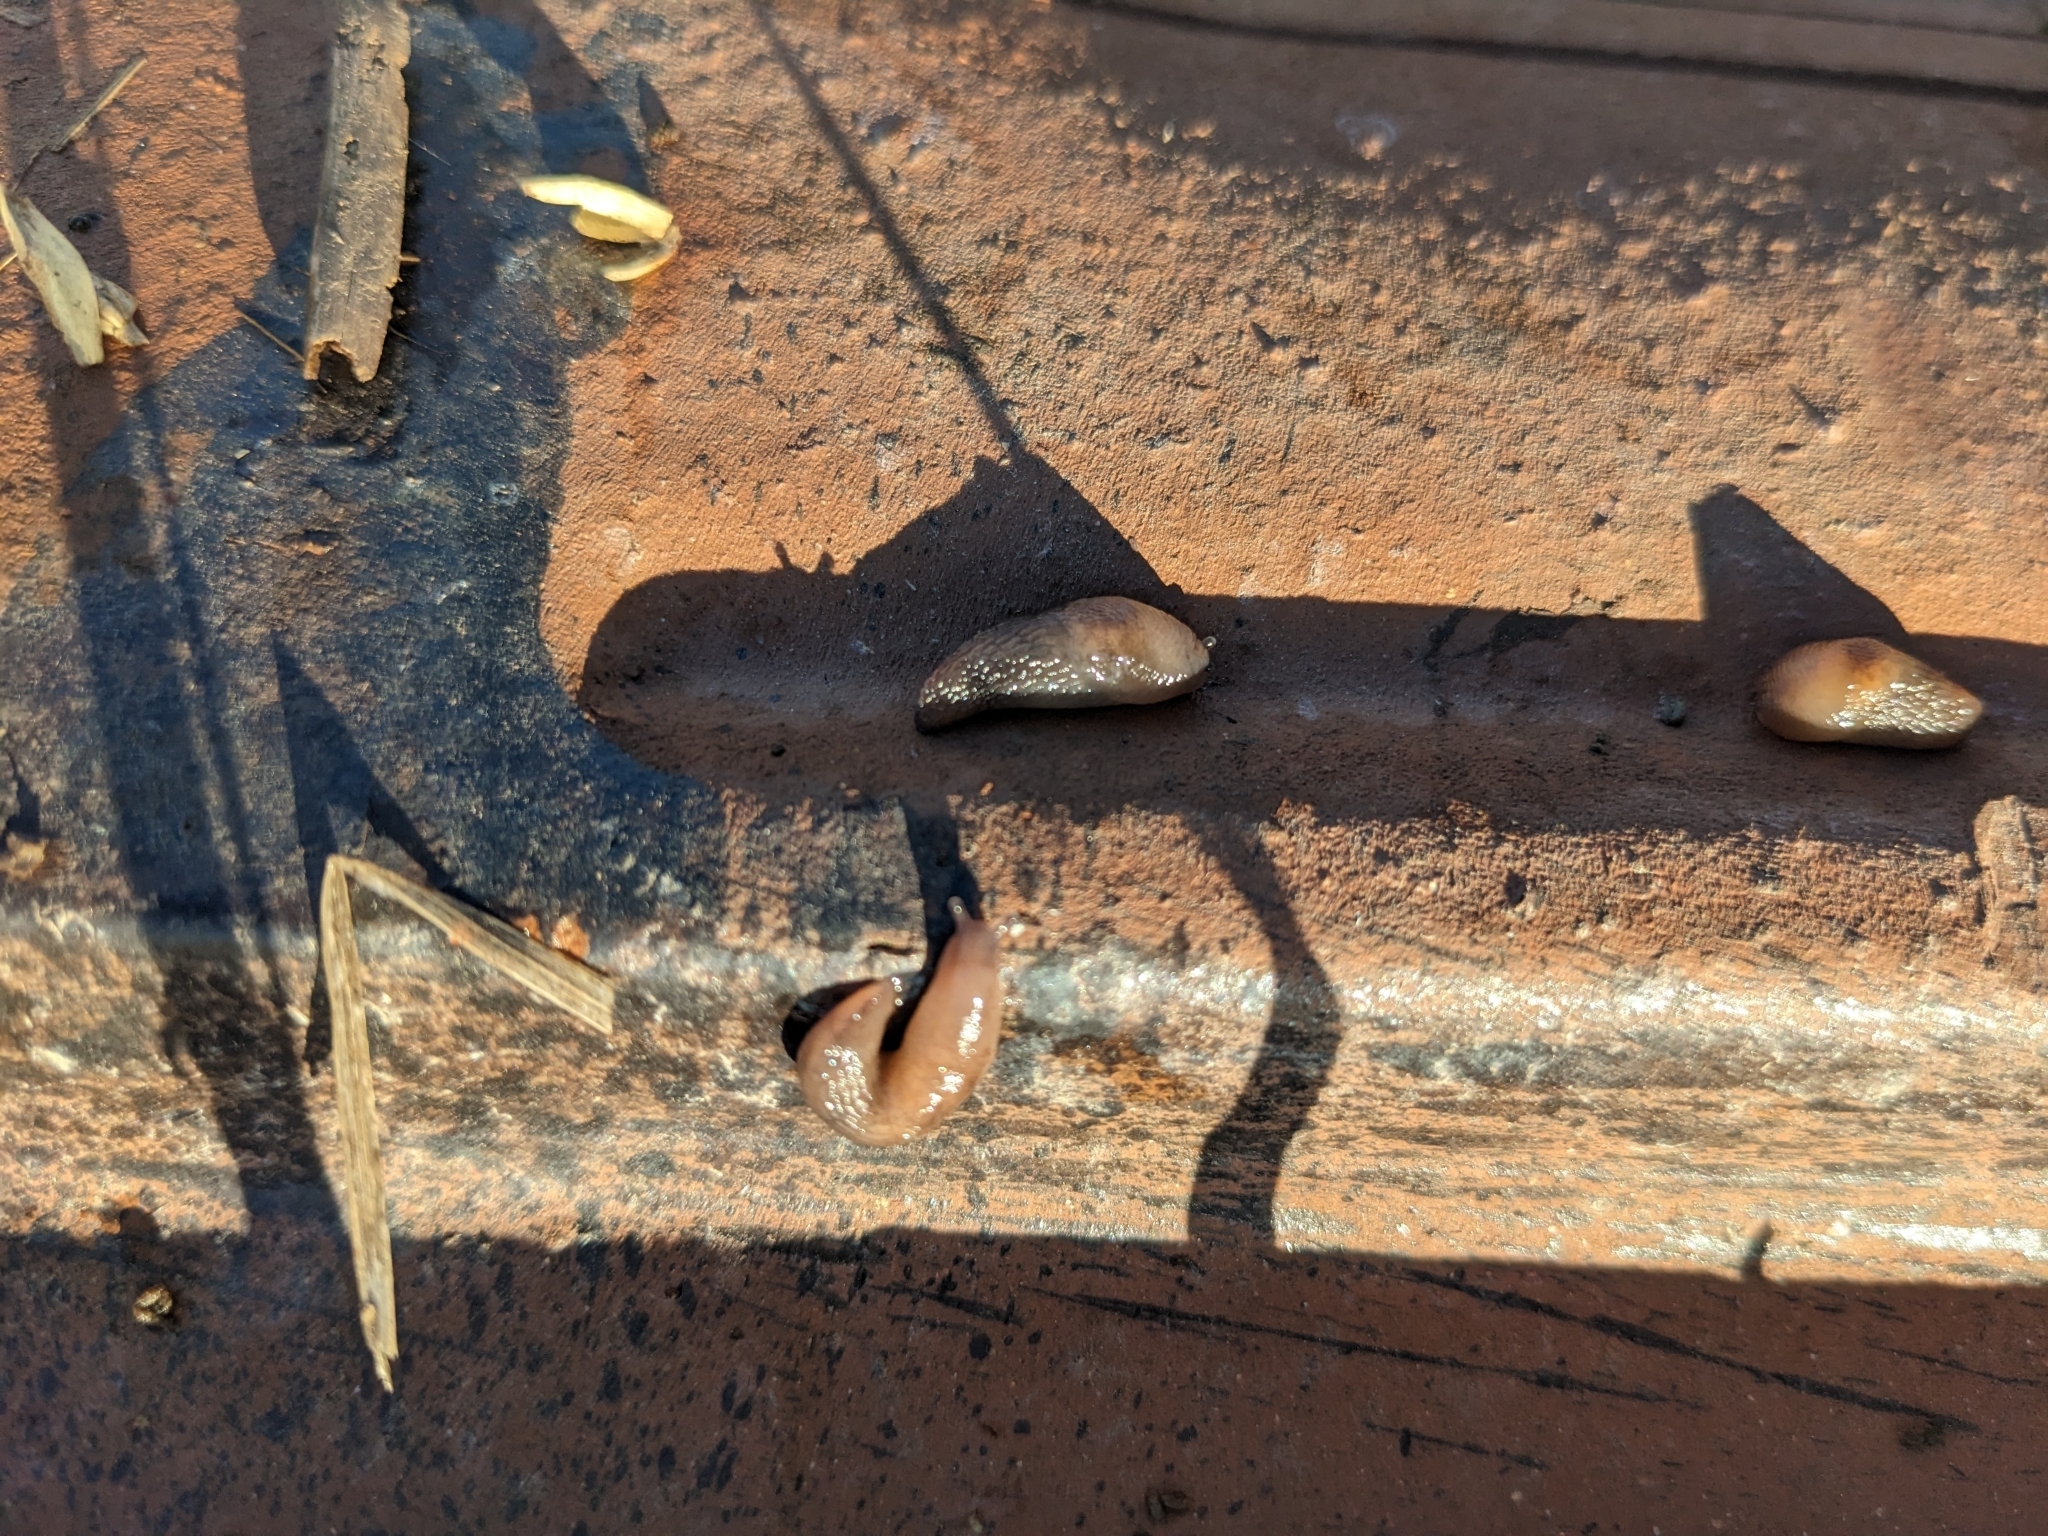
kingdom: Animalia
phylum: Mollusca
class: Gastropoda
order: Stylommatophora
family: Agriolimacidae
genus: Deroceras
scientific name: Deroceras invadens
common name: Caruana's slug
